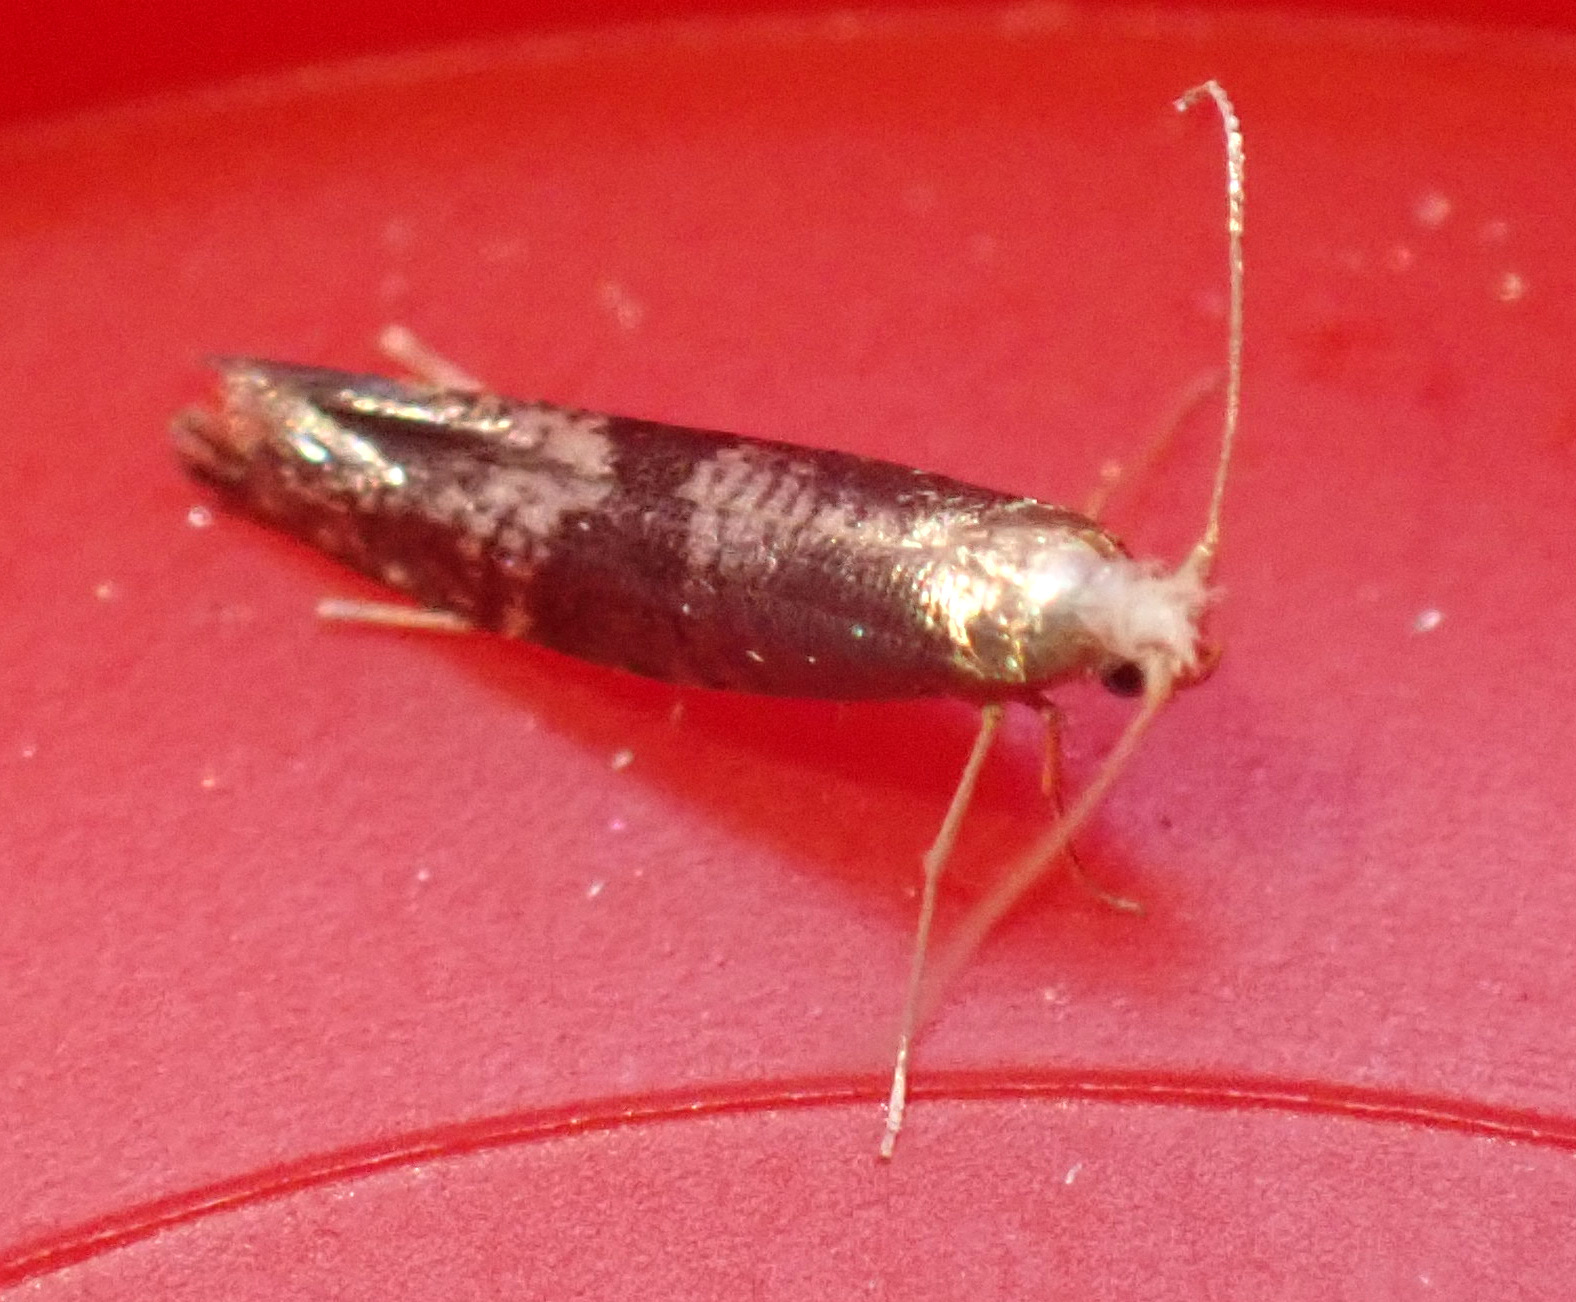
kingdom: Animalia
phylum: Arthropoda
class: Insecta
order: Lepidoptera
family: Argyresthiidae
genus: Argyresthia
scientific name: Argyresthia glaucinella
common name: Oak-bark argent
